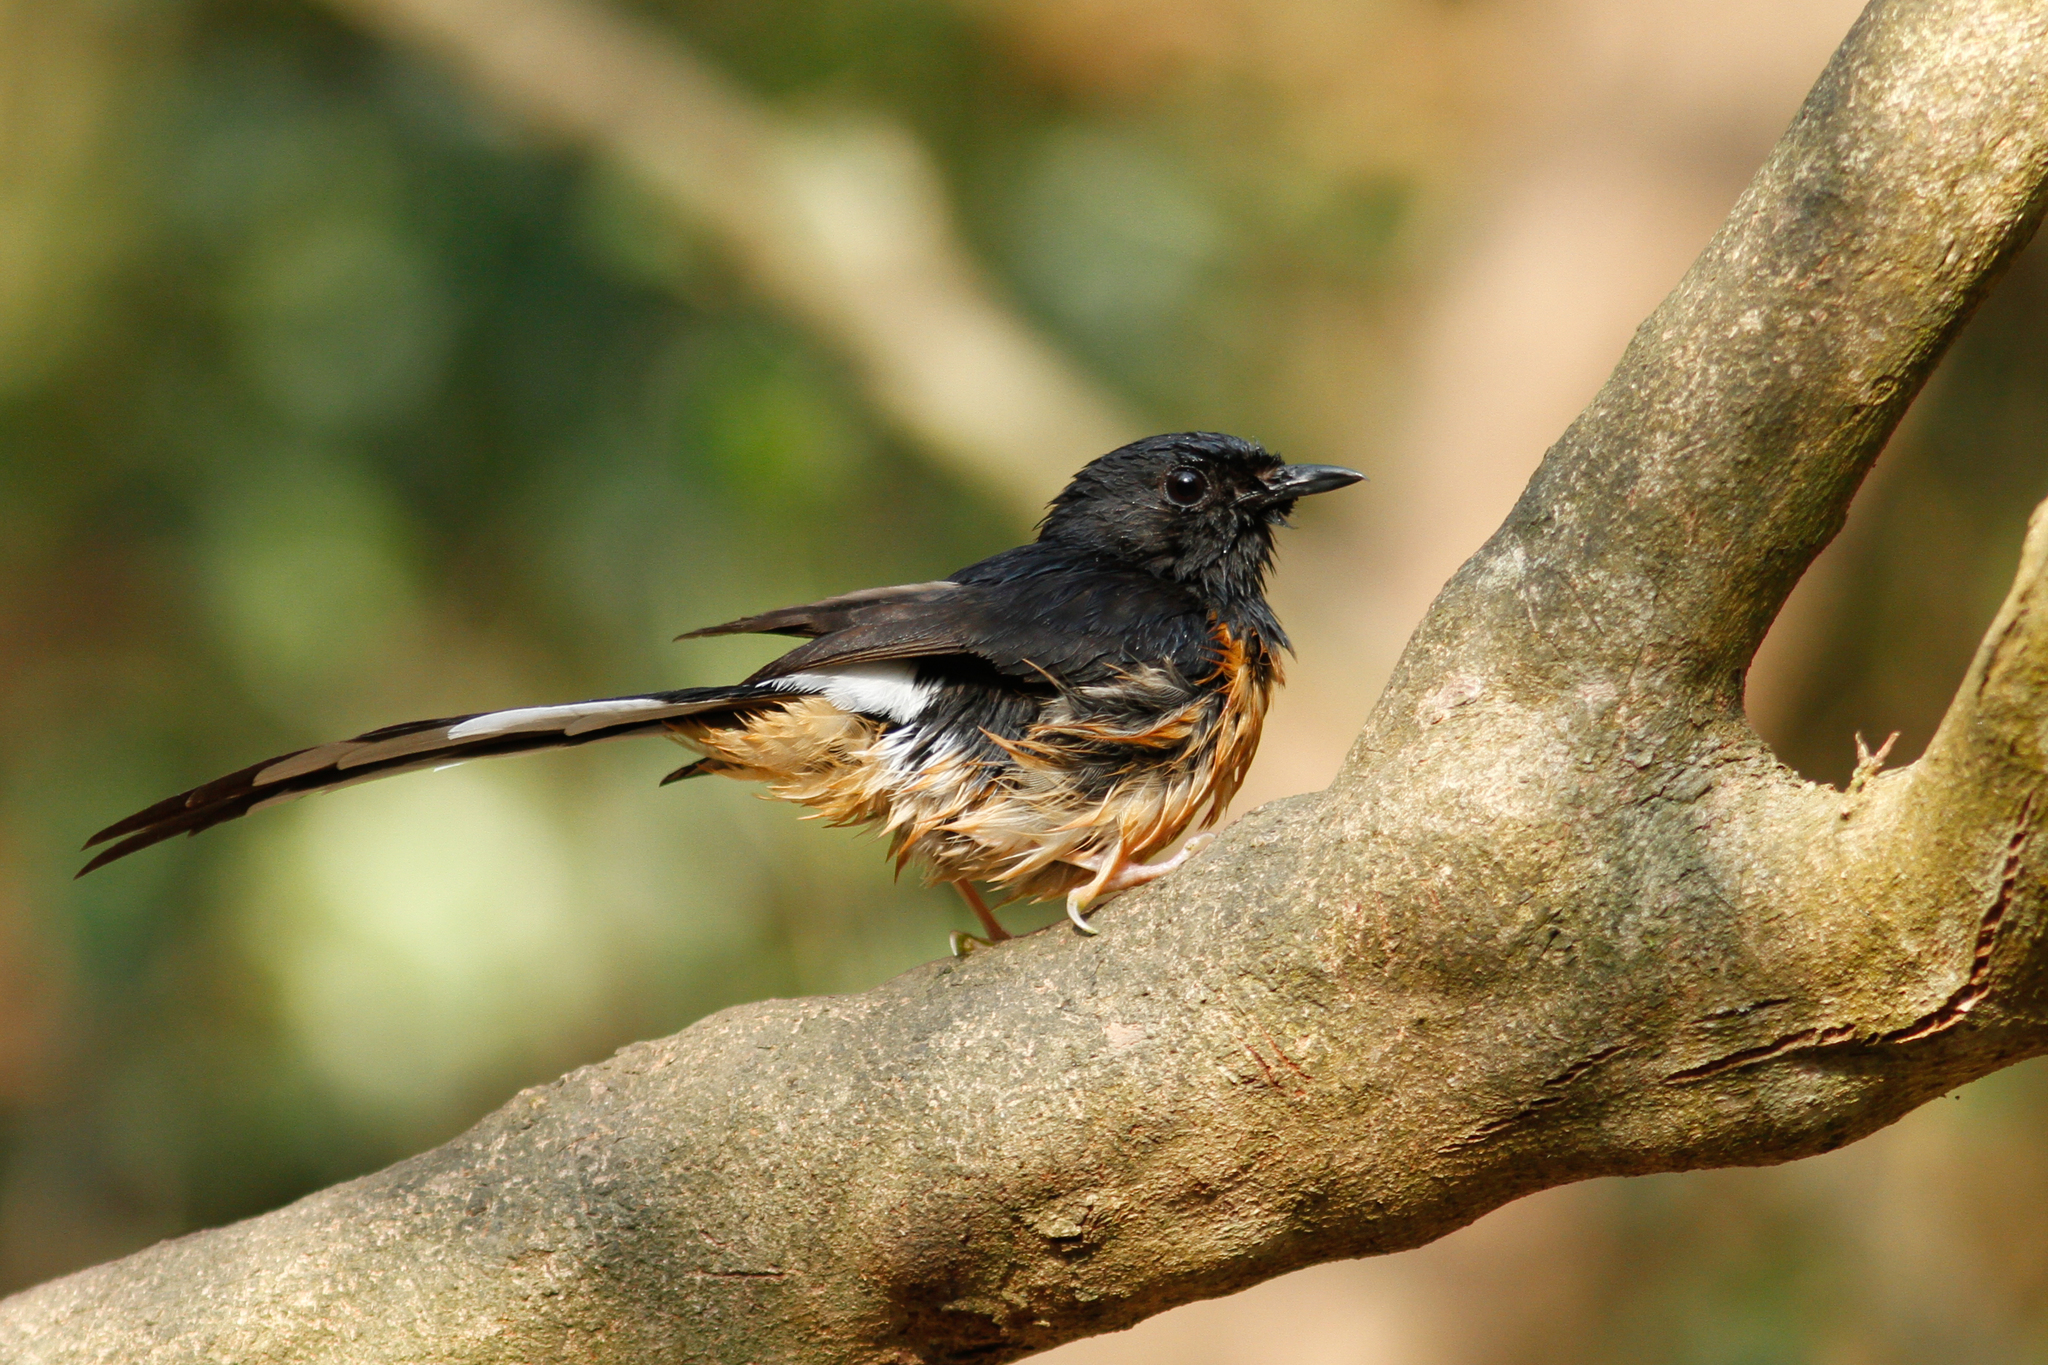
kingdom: Animalia
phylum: Chordata
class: Aves
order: Passeriformes
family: Muscicapidae
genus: Copsychus
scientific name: Copsychus malabaricus
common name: White-rumped shama
